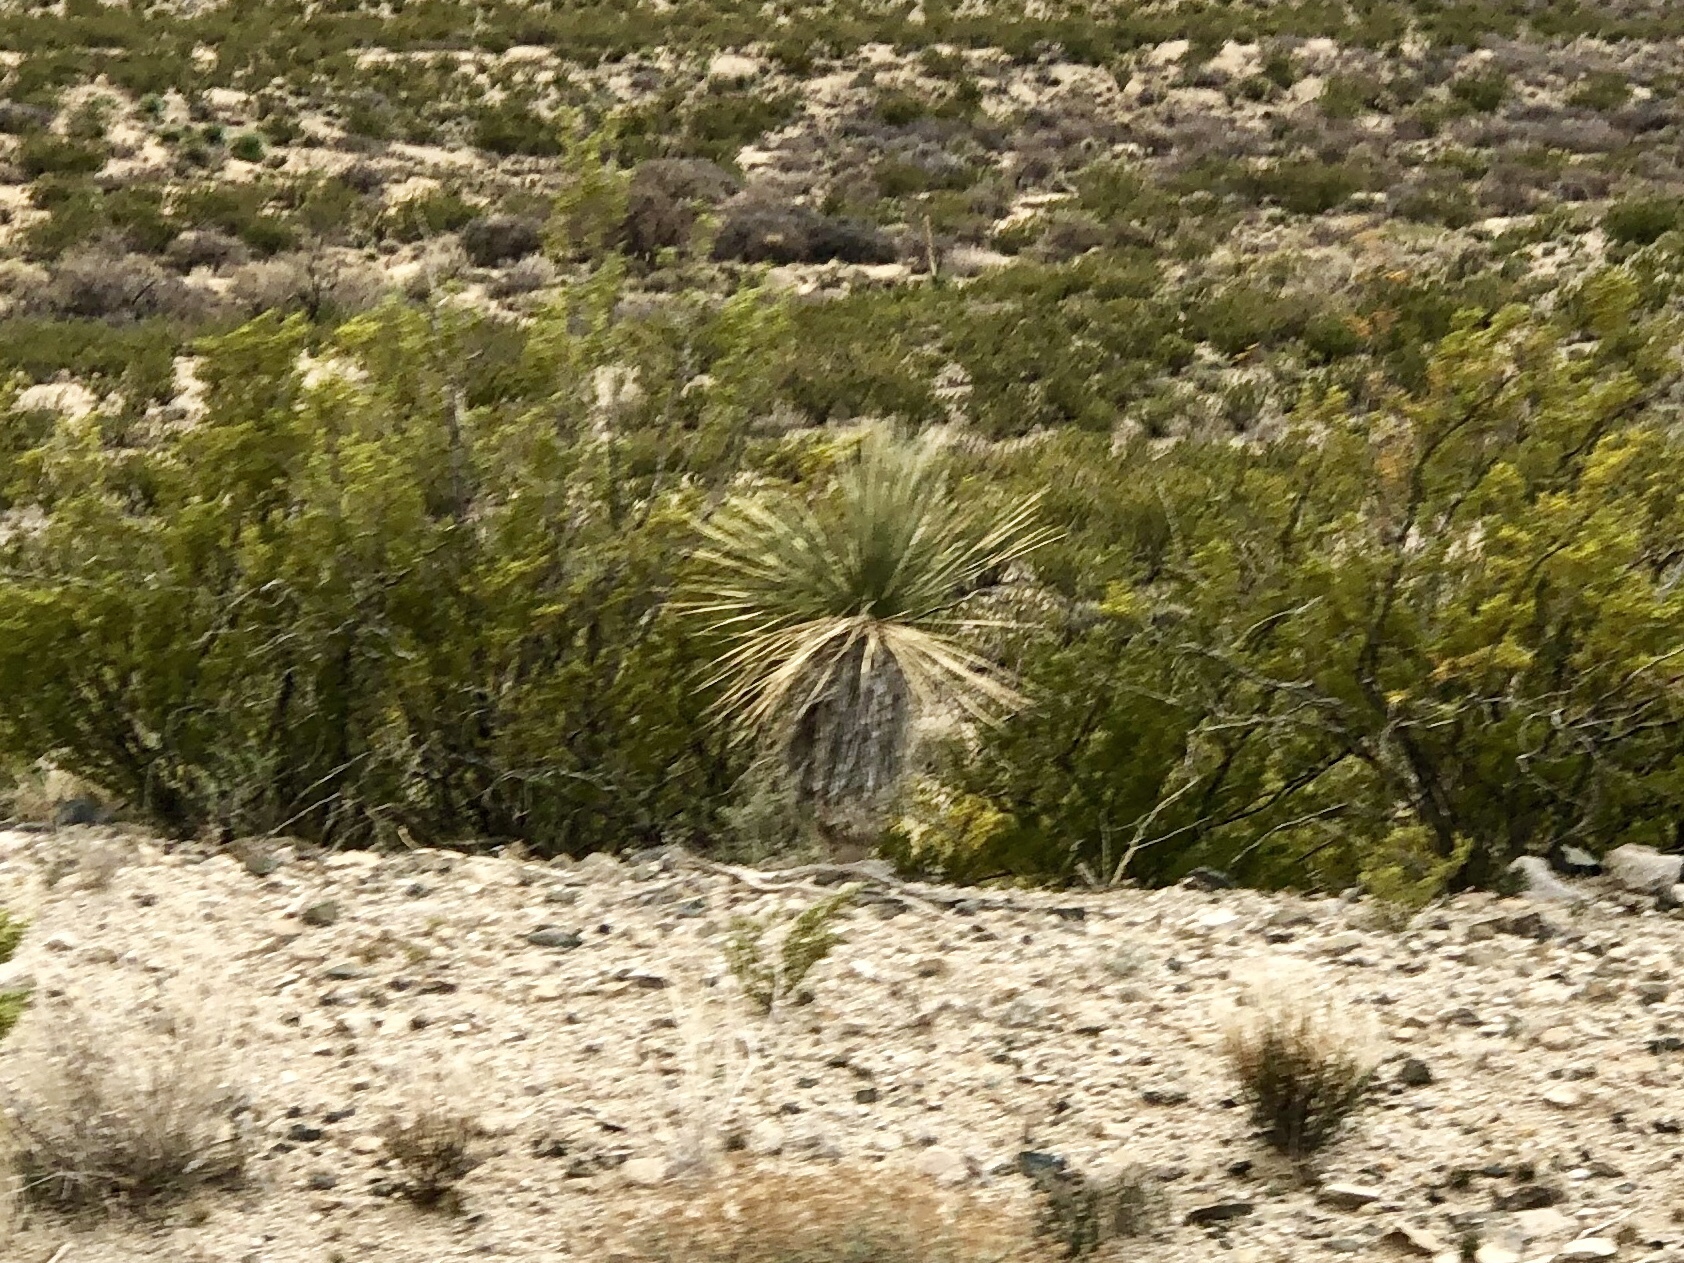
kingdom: Plantae
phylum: Tracheophyta
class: Liliopsida
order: Asparagales
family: Asparagaceae
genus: Yucca
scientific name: Yucca elata
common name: Palmella
